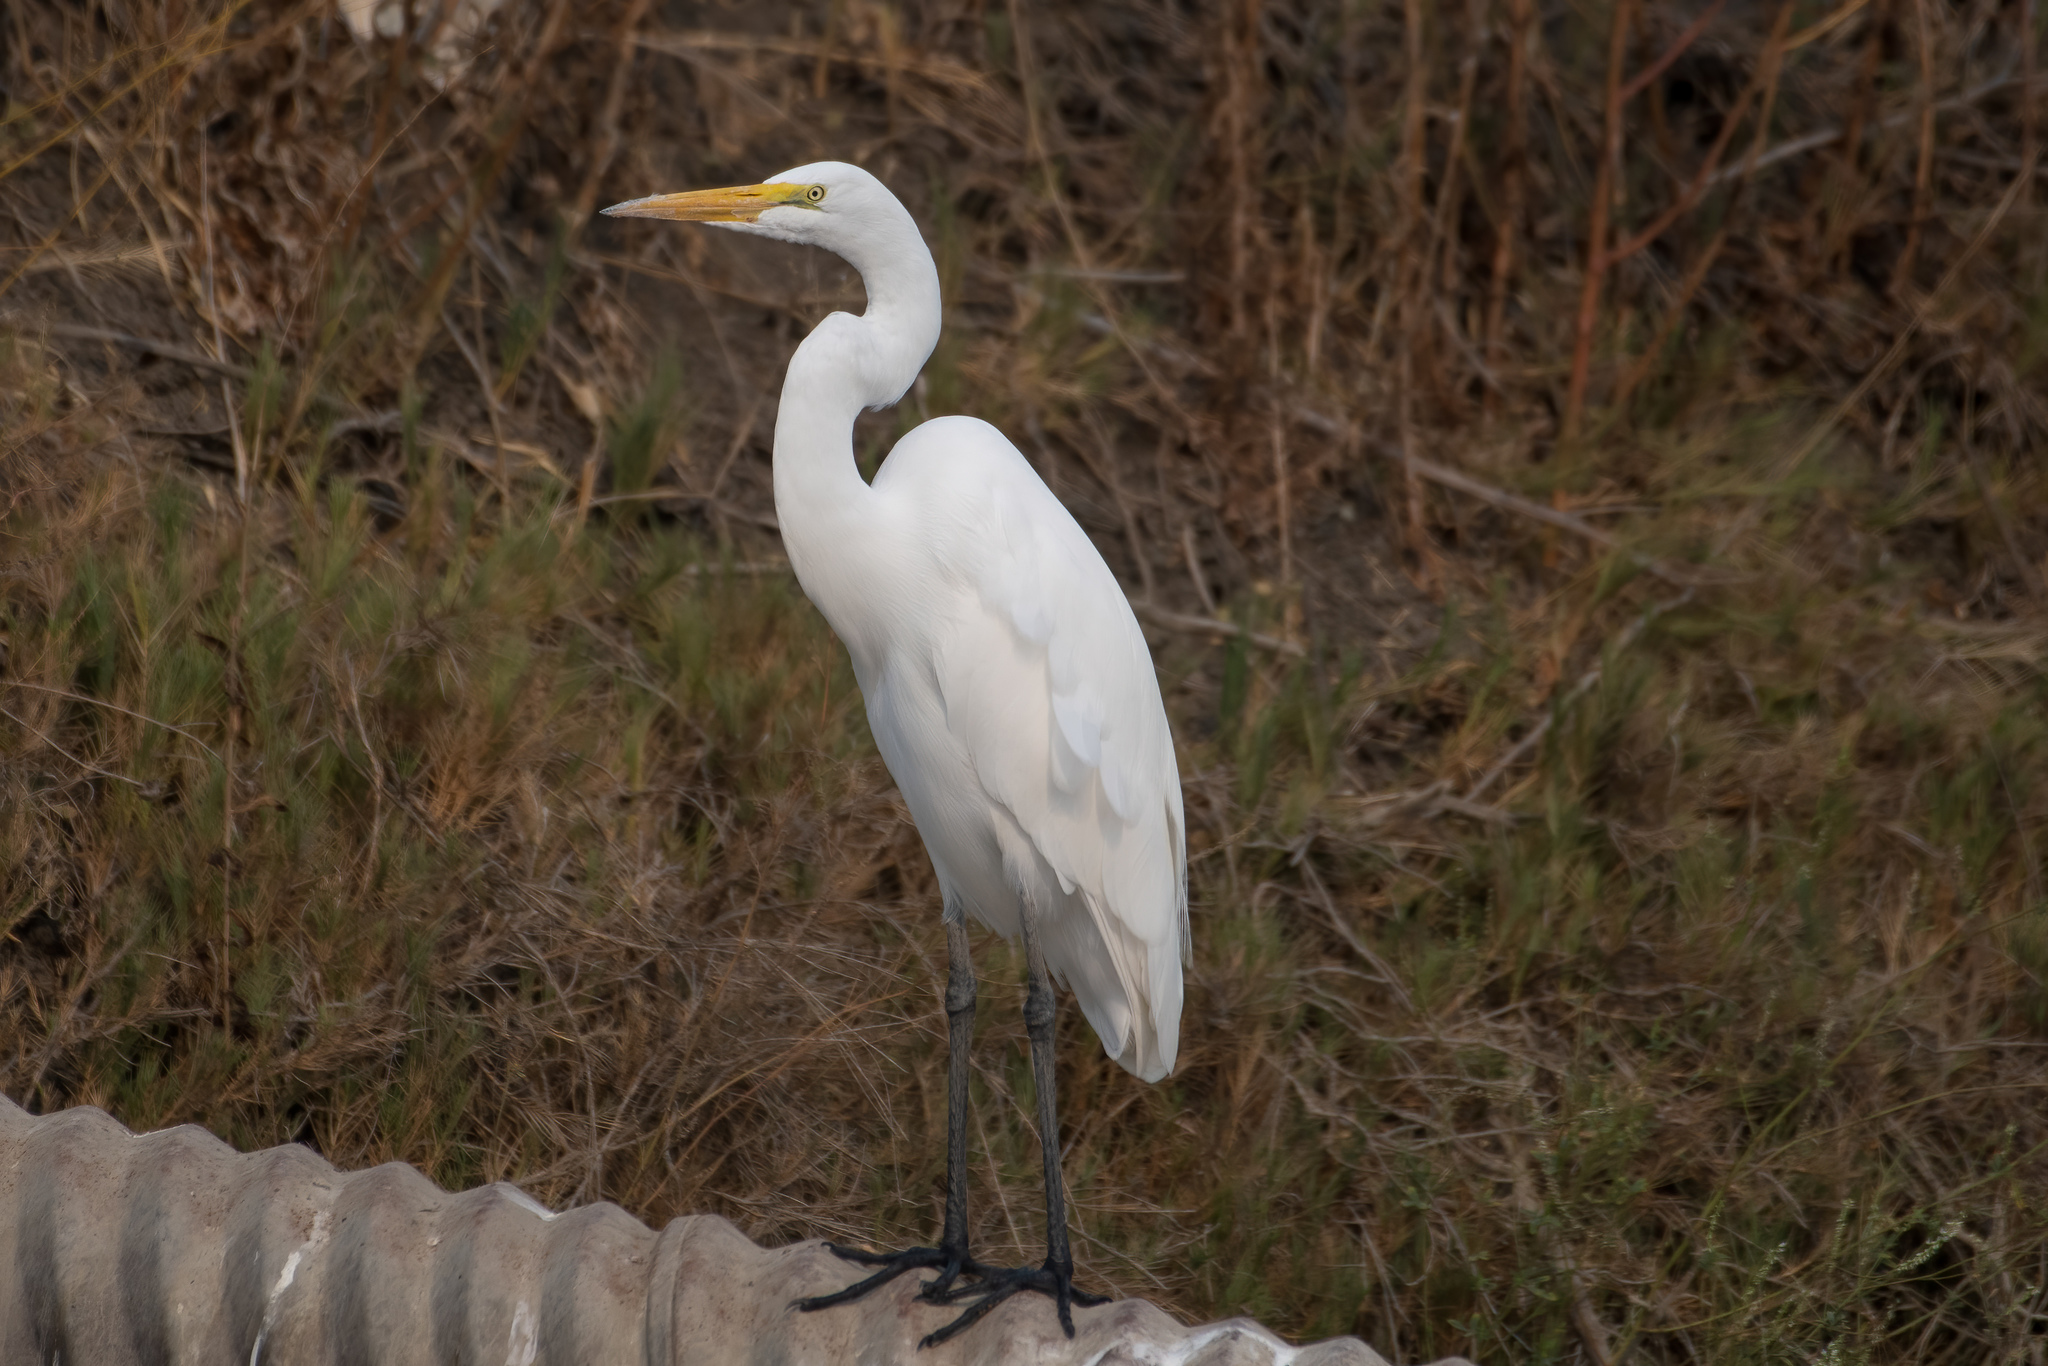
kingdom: Animalia
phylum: Chordata
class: Aves
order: Pelecaniformes
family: Ardeidae
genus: Ardea
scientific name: Ardea alba
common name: Great egret
